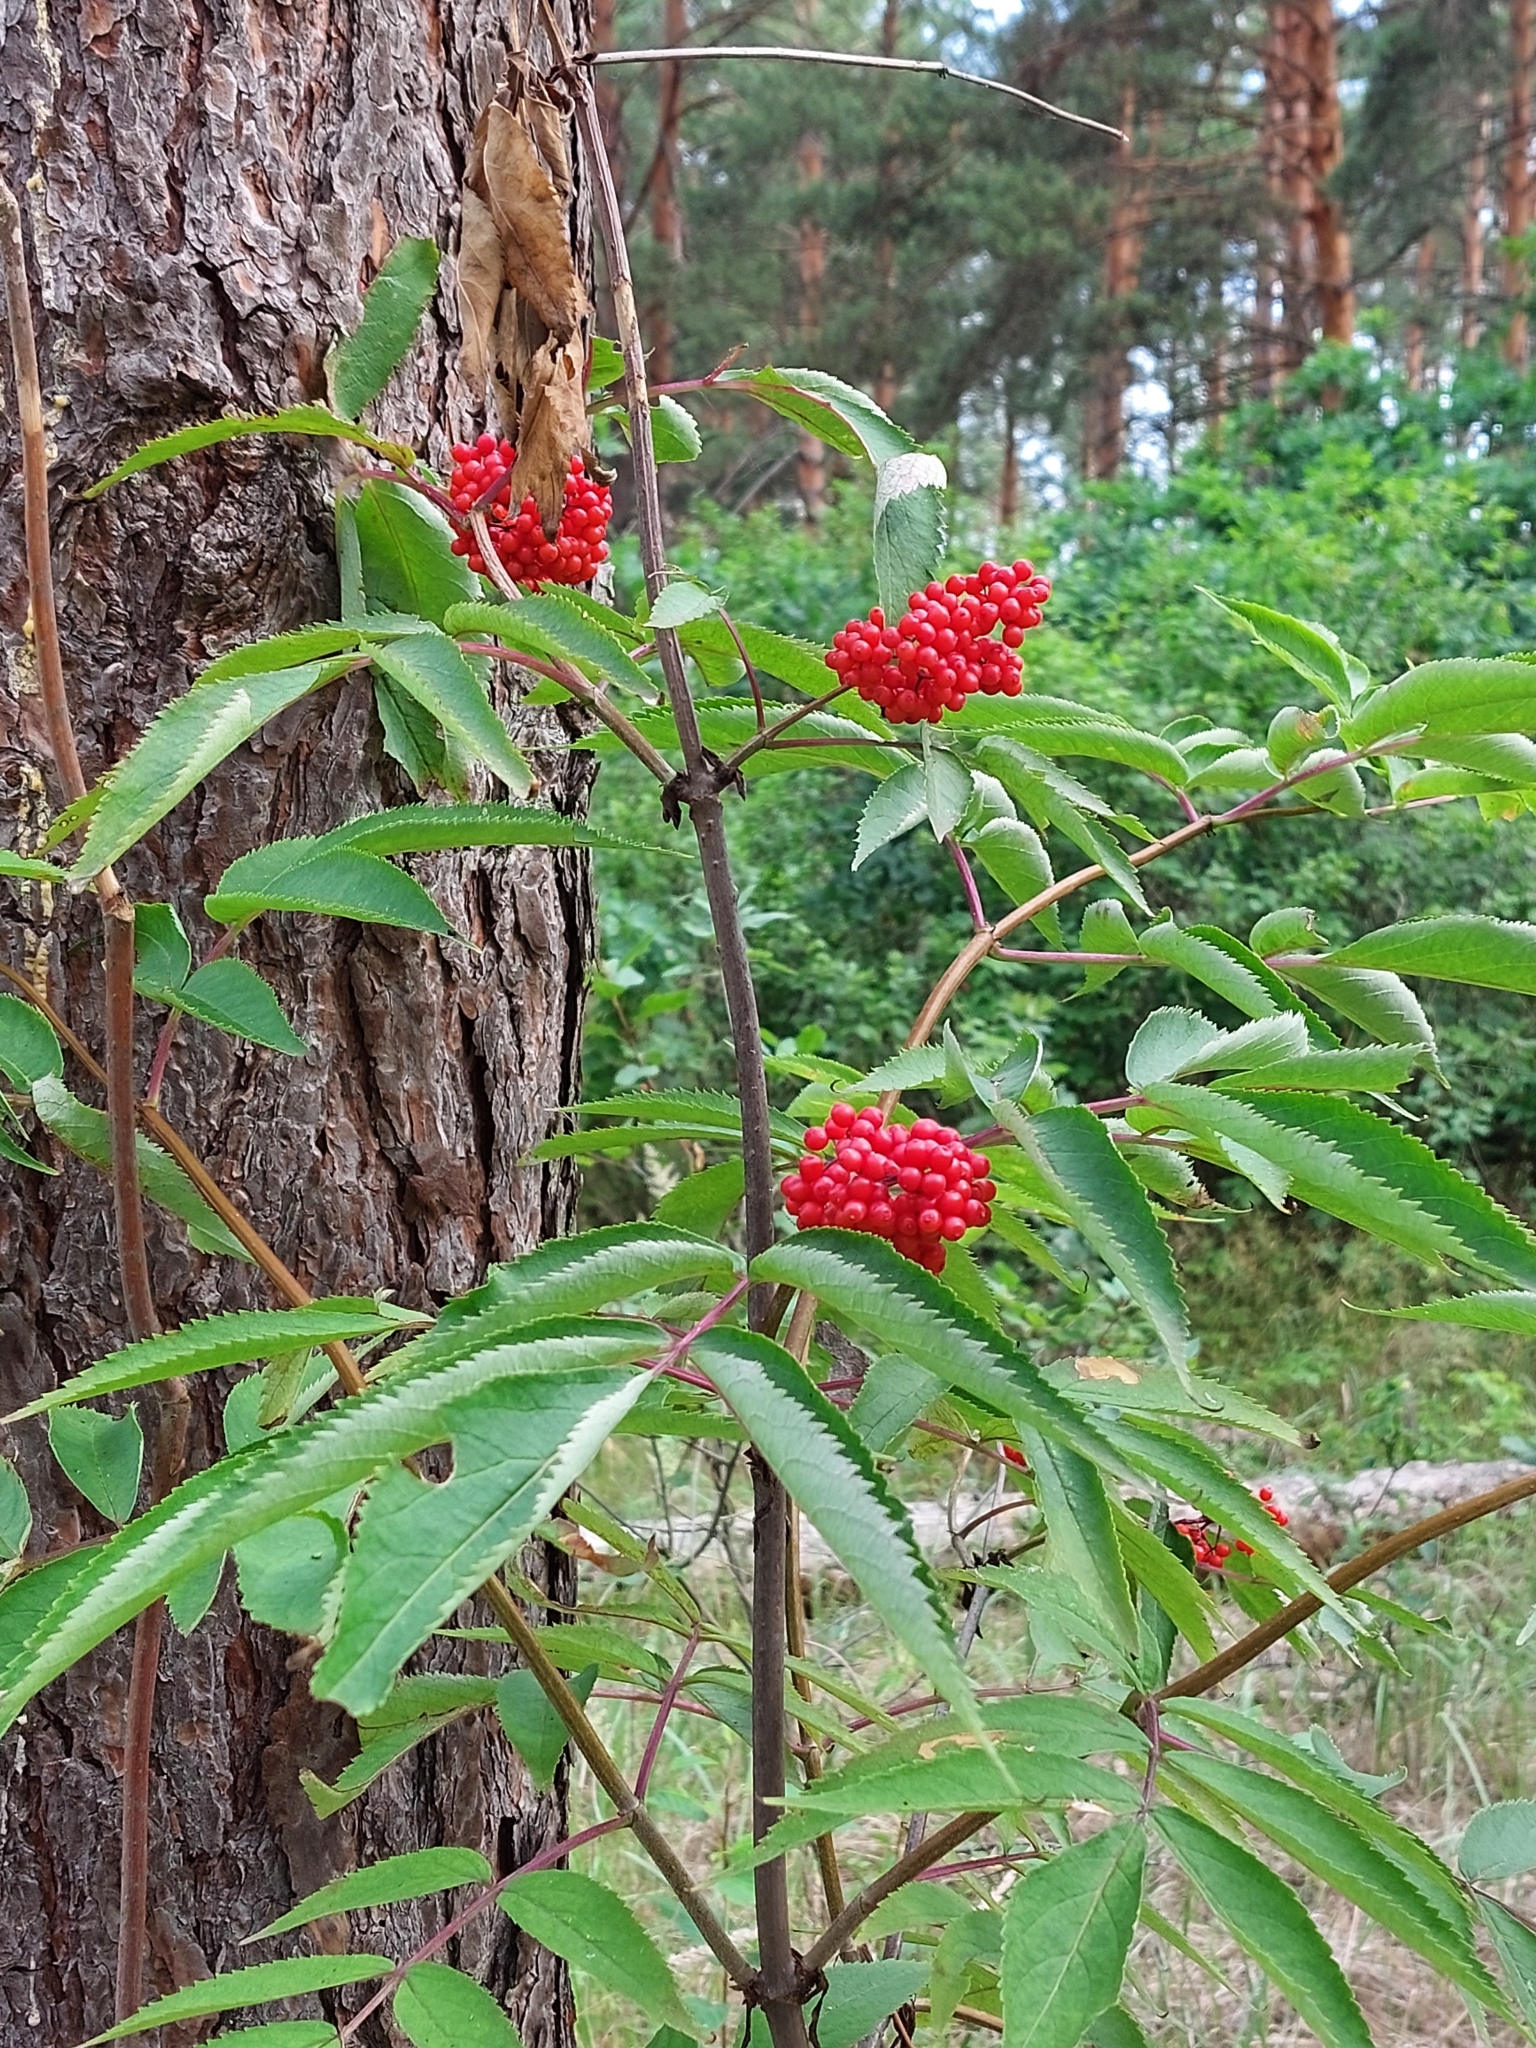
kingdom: Plantae
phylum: Tracheophyta
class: Magnoliopsida
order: Dipsacales
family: Viburnaceae
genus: Sambucus
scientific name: Sambucus racemosa
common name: Red-berried elder
